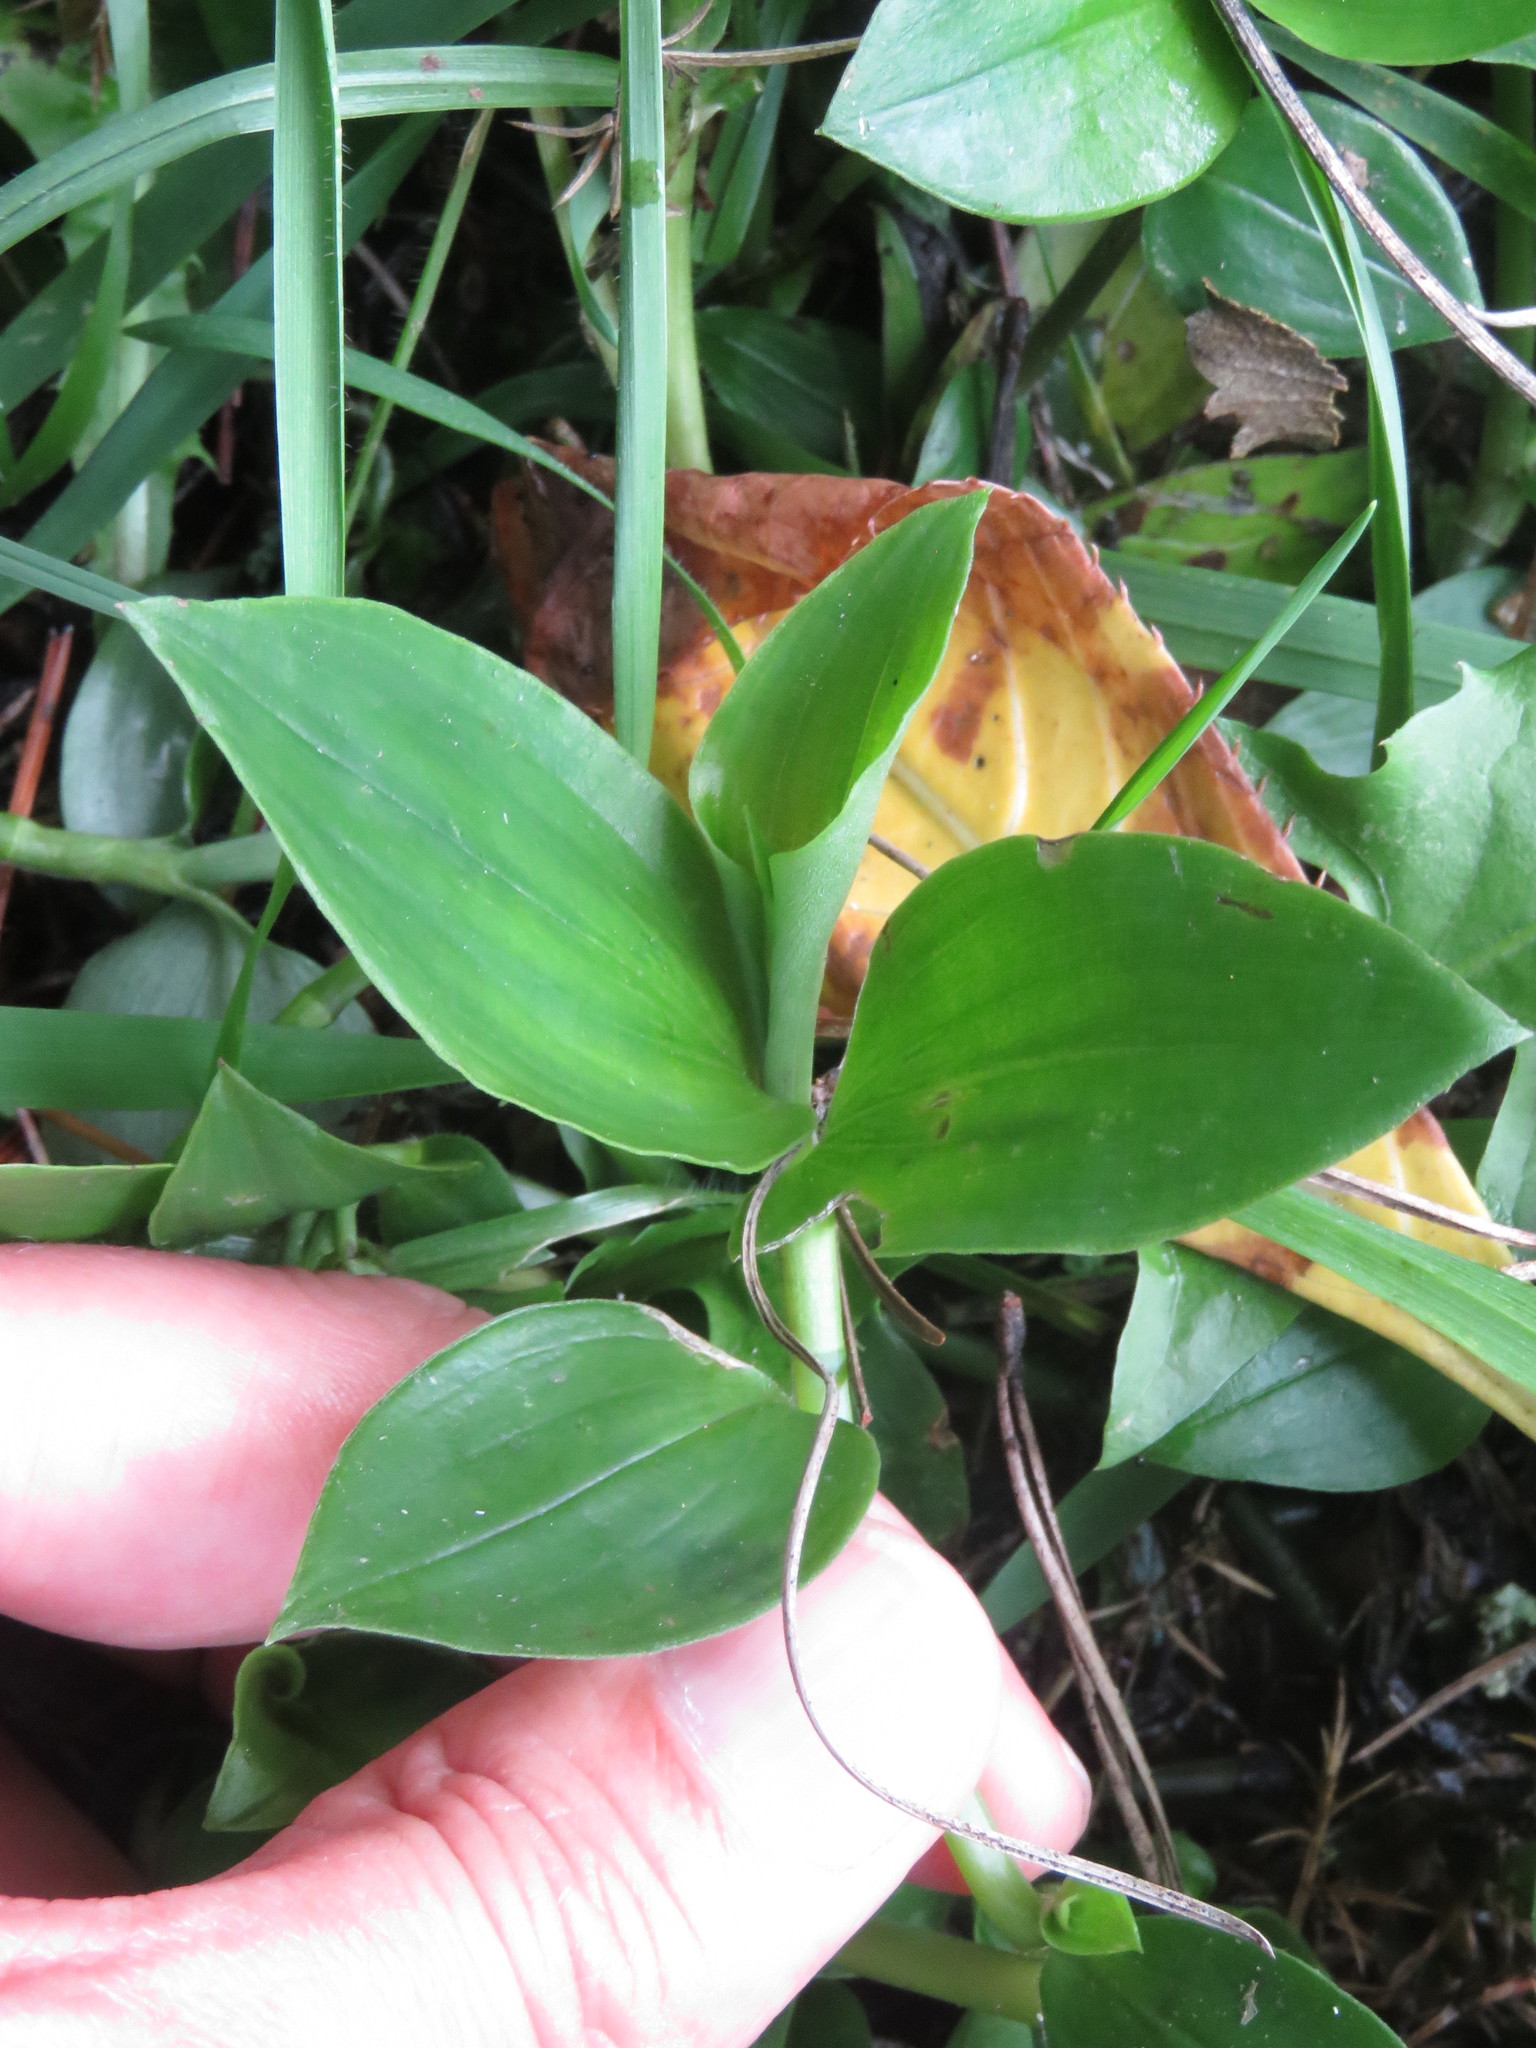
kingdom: Plantae
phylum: Tracheophyta
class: Liliopsida
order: Commelinales
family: Commelinaceae
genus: Tradescantia
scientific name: Tradescantia fluminensis
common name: Wandering-jew
